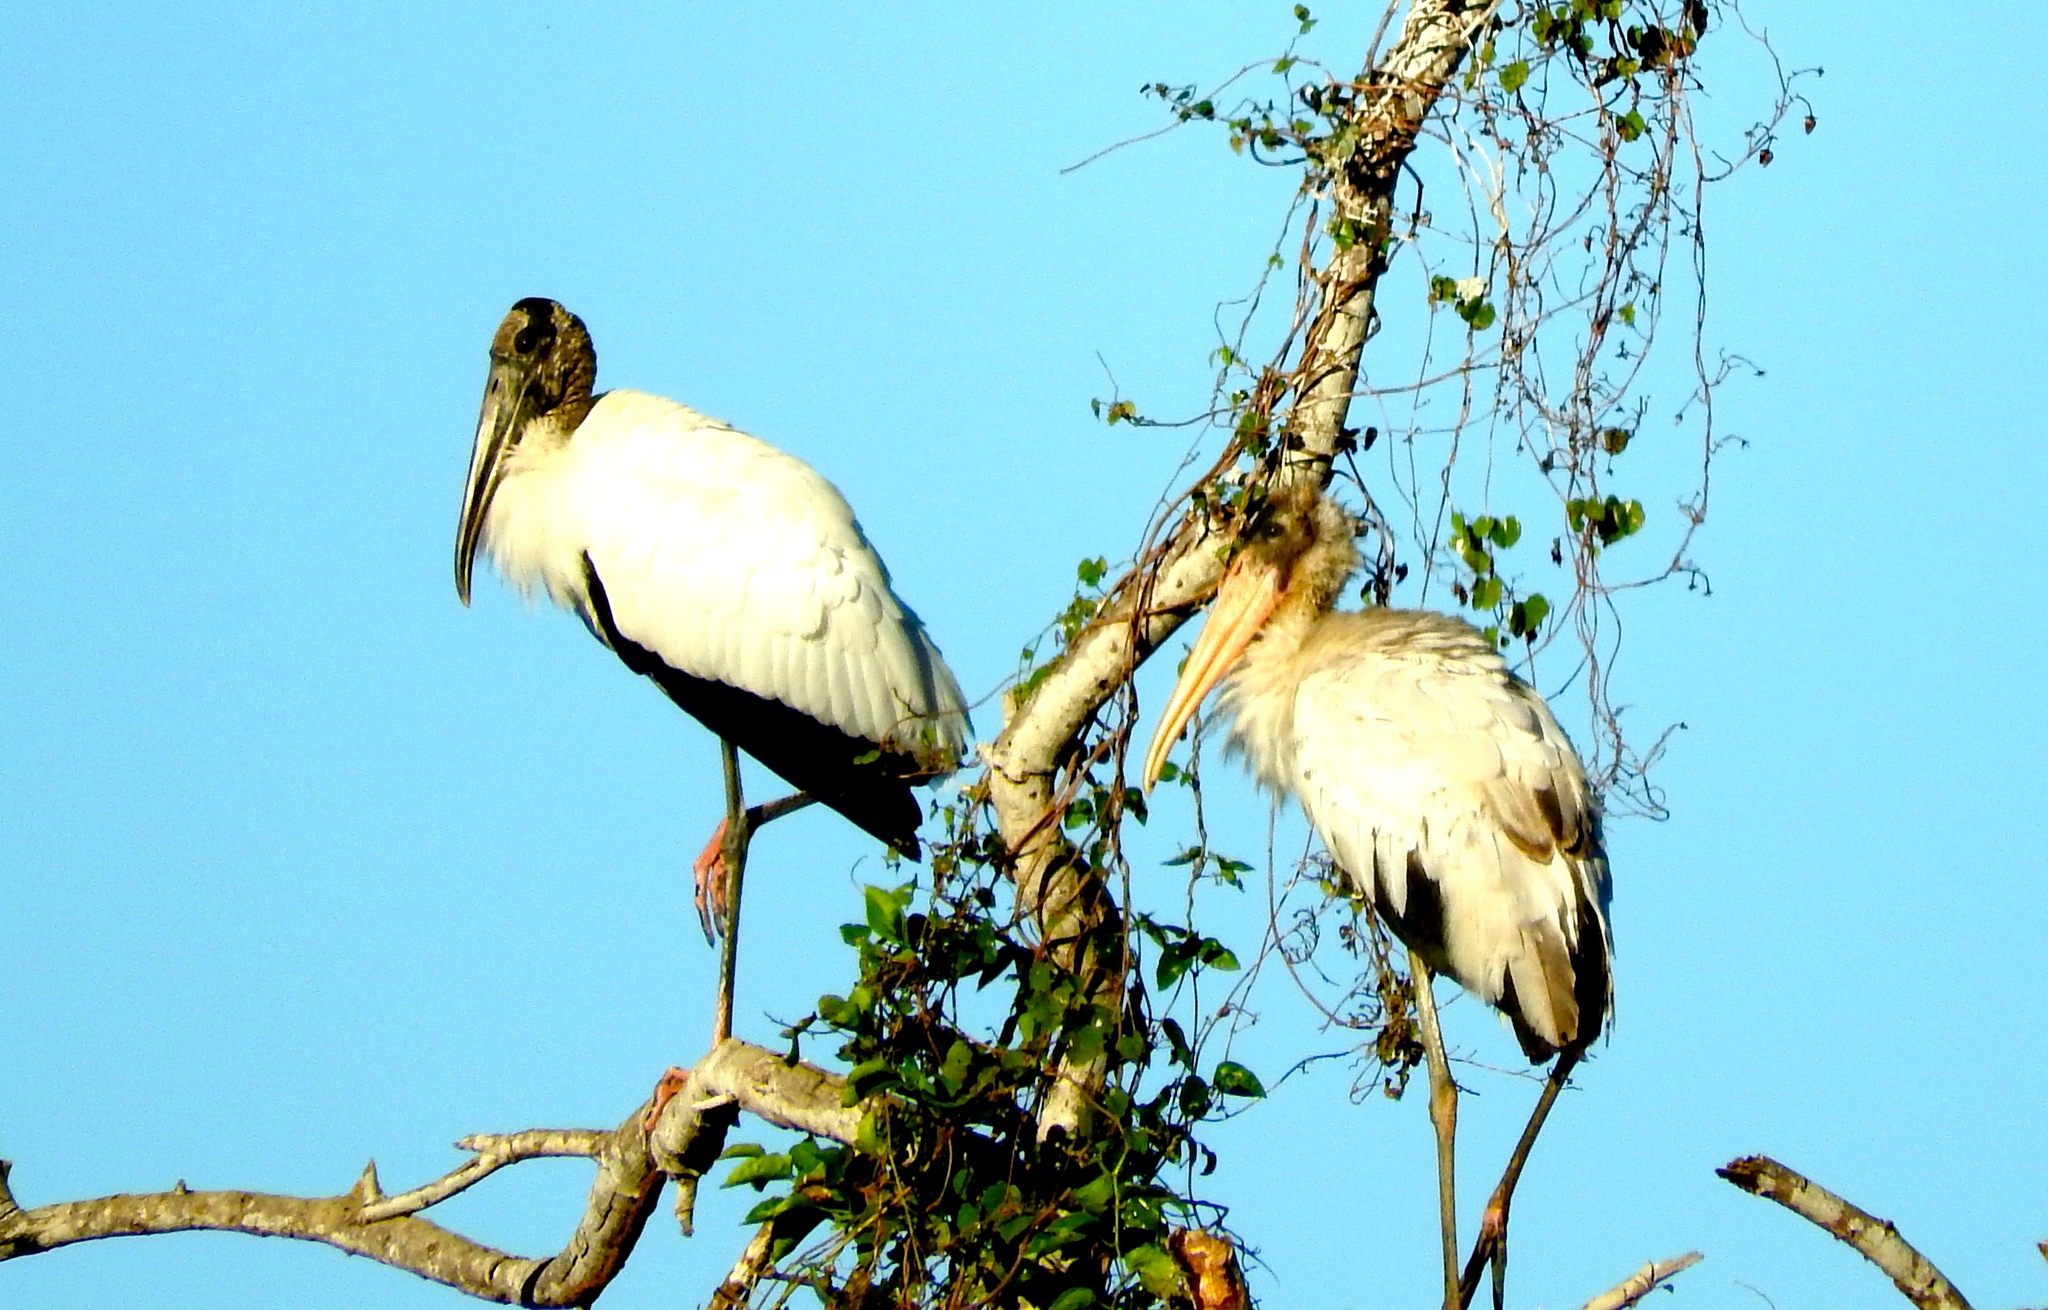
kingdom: Animalia
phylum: Chordata
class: Aves
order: Ciconiiformes
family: Ciconiidae
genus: Mycteria
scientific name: Mycteria americana
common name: Wood stork
